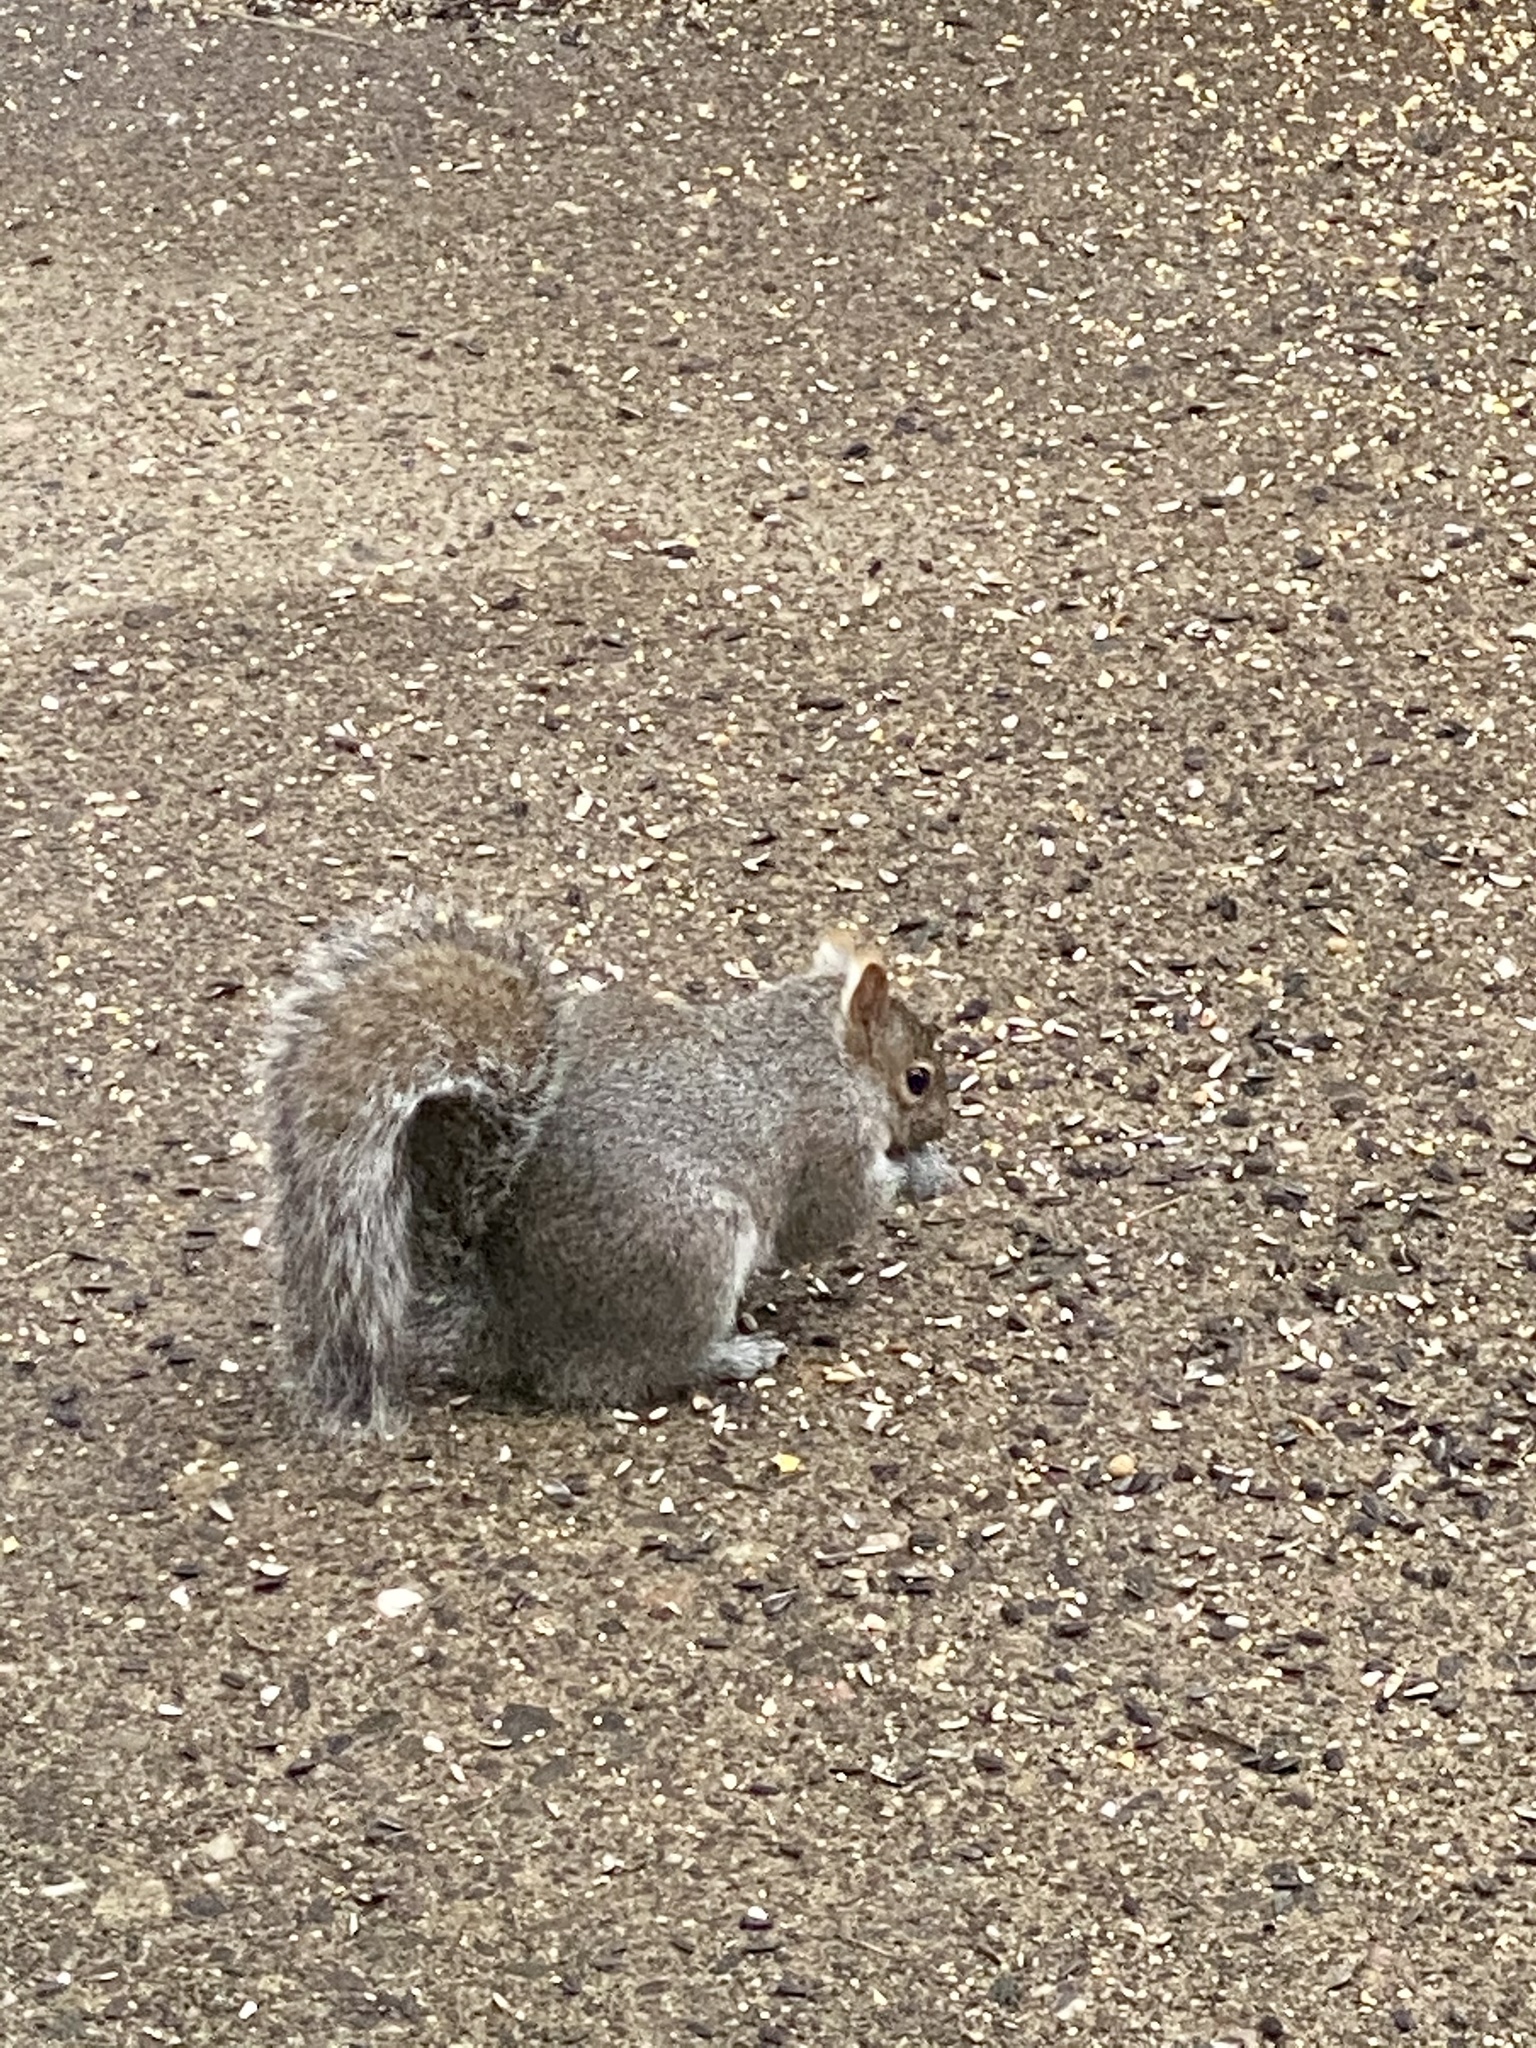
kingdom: Animalia
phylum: Chordata
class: Mammalia
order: Rodentia
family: Sciuridae
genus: Sciurus
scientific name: Sciurus carolinensis
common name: Eastern gray squirrel
